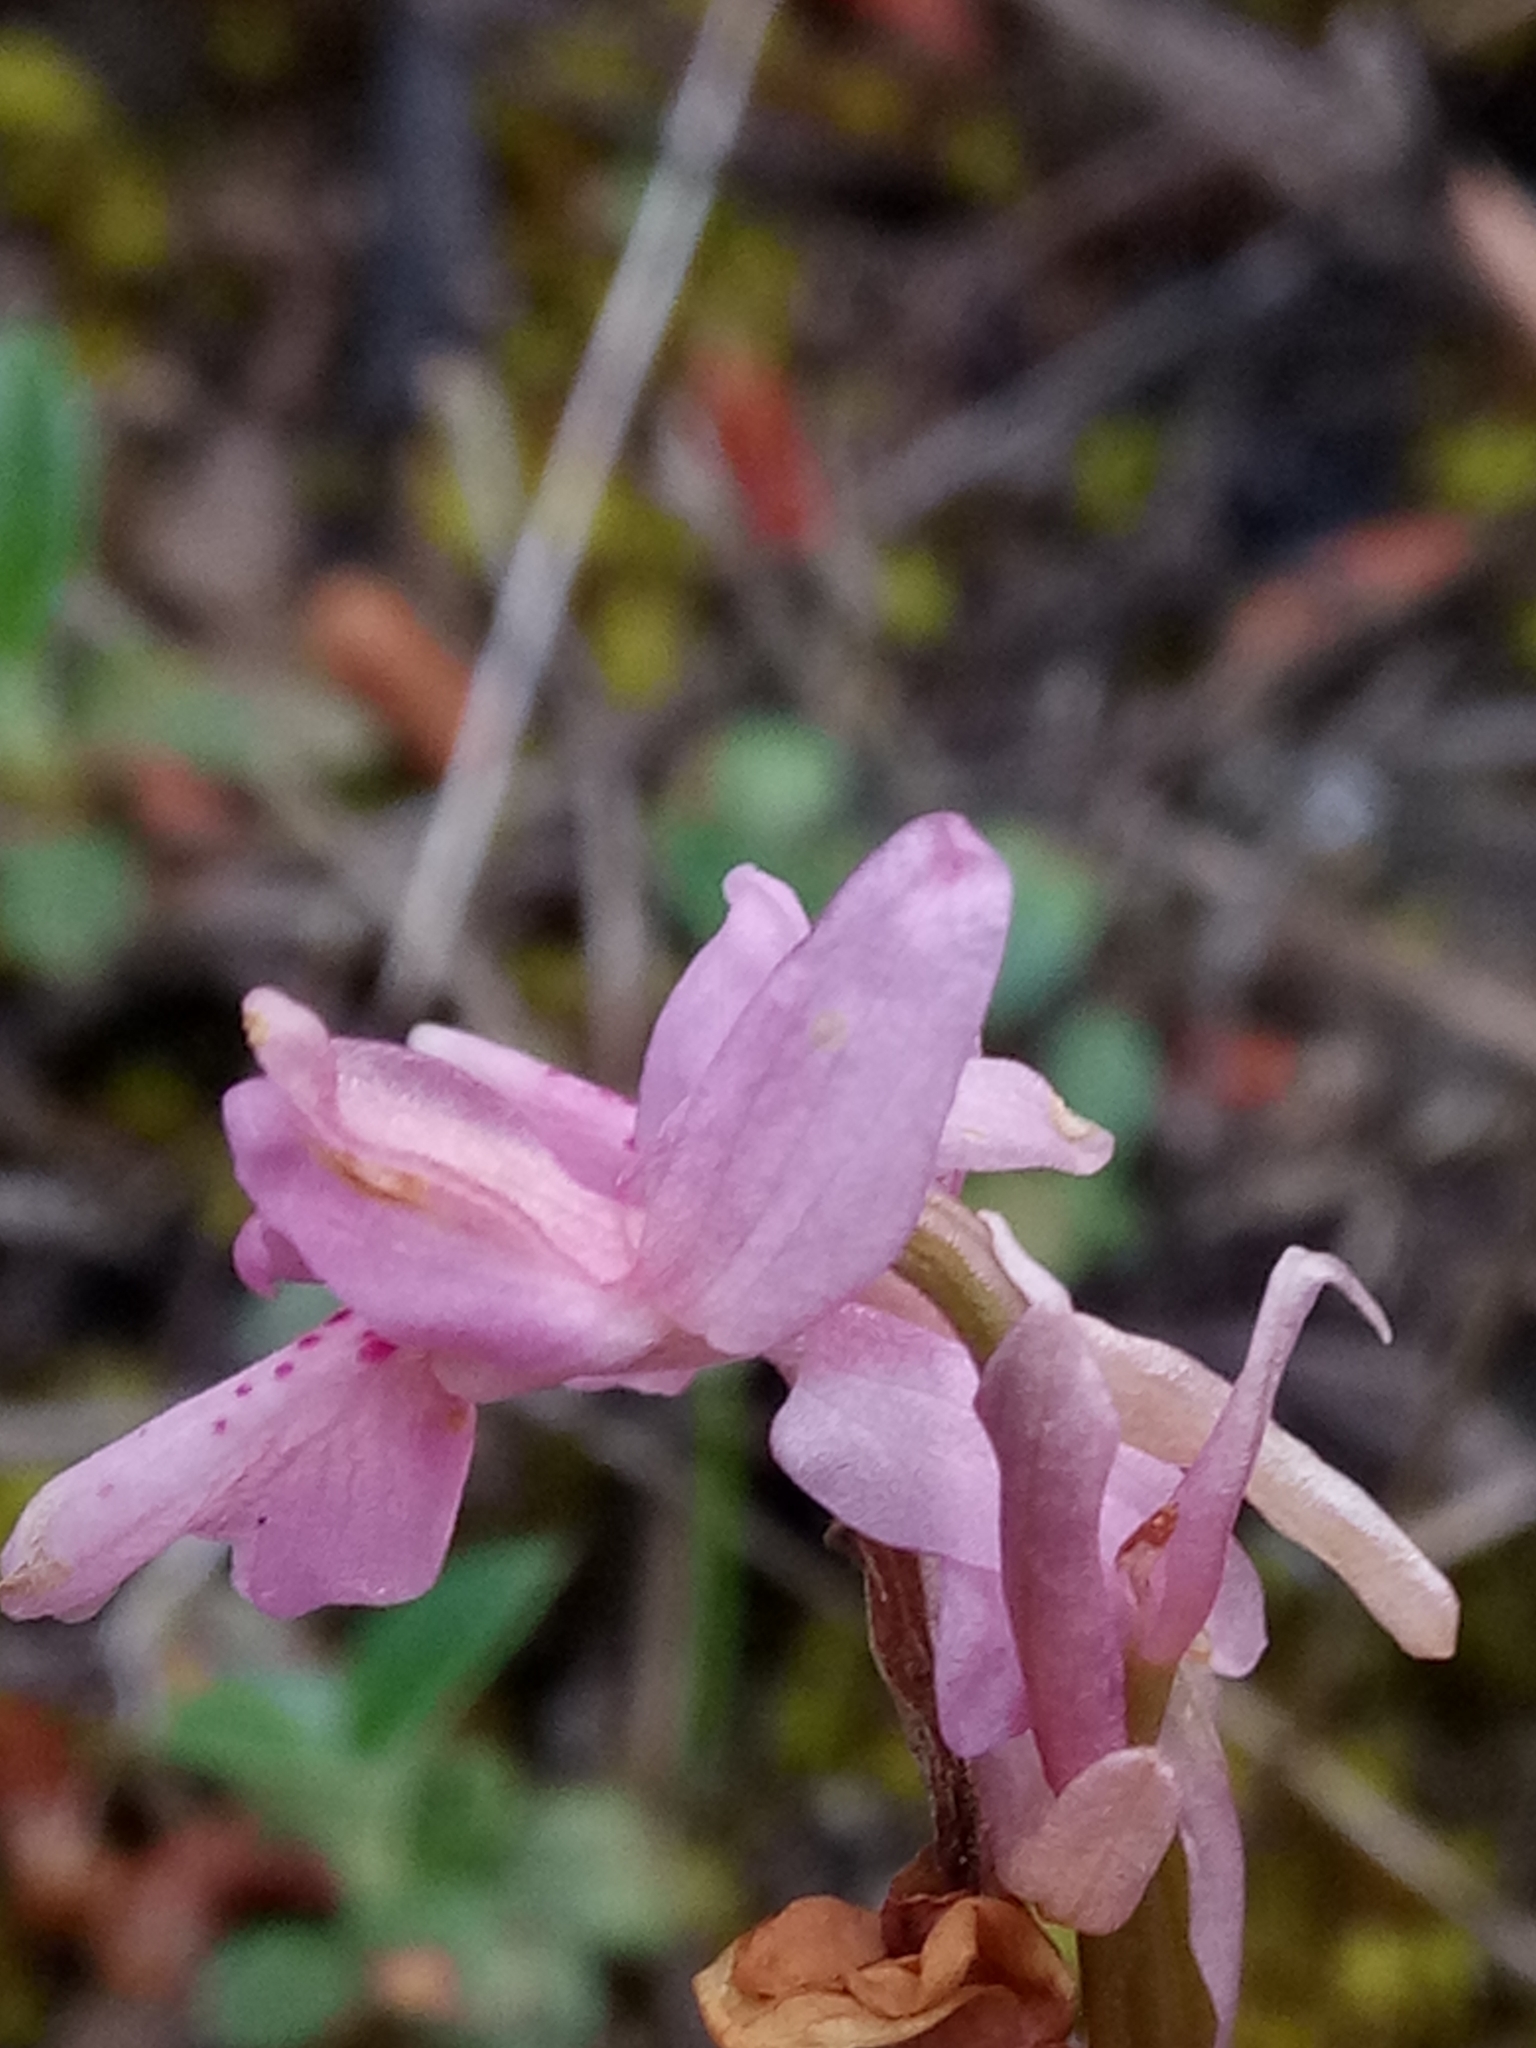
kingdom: Plantae
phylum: Tracheophyta
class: Liliopsida
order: Asparagales
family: Orchidaceae
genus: Orchis
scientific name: Orchis laeta
